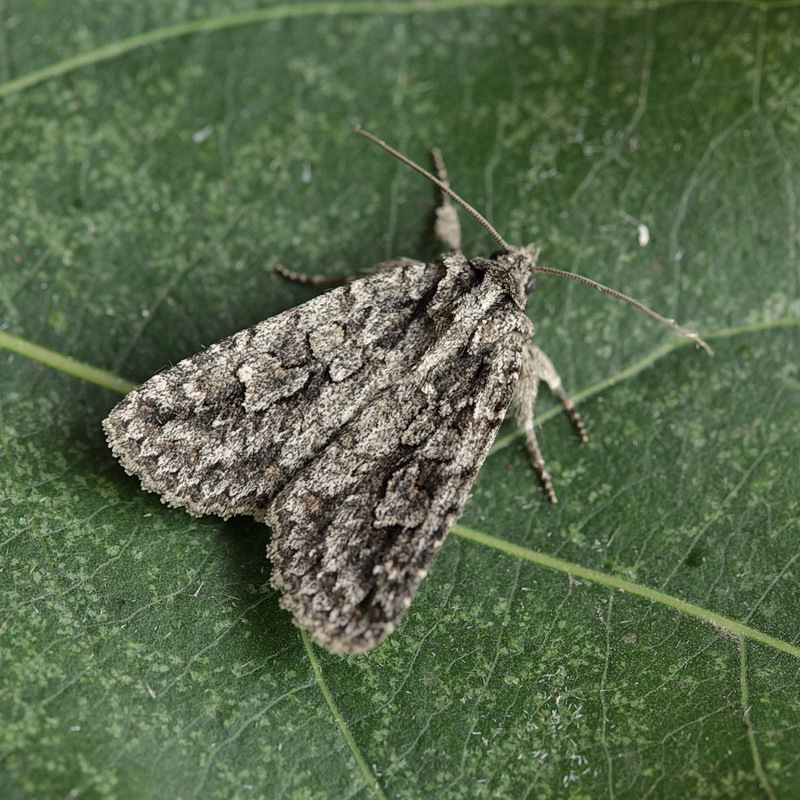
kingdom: Animalia
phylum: Arthropoda
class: Insecta
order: Lepidoptera
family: Noctuidae
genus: Phidrimana
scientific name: Phidrimana amurensis
